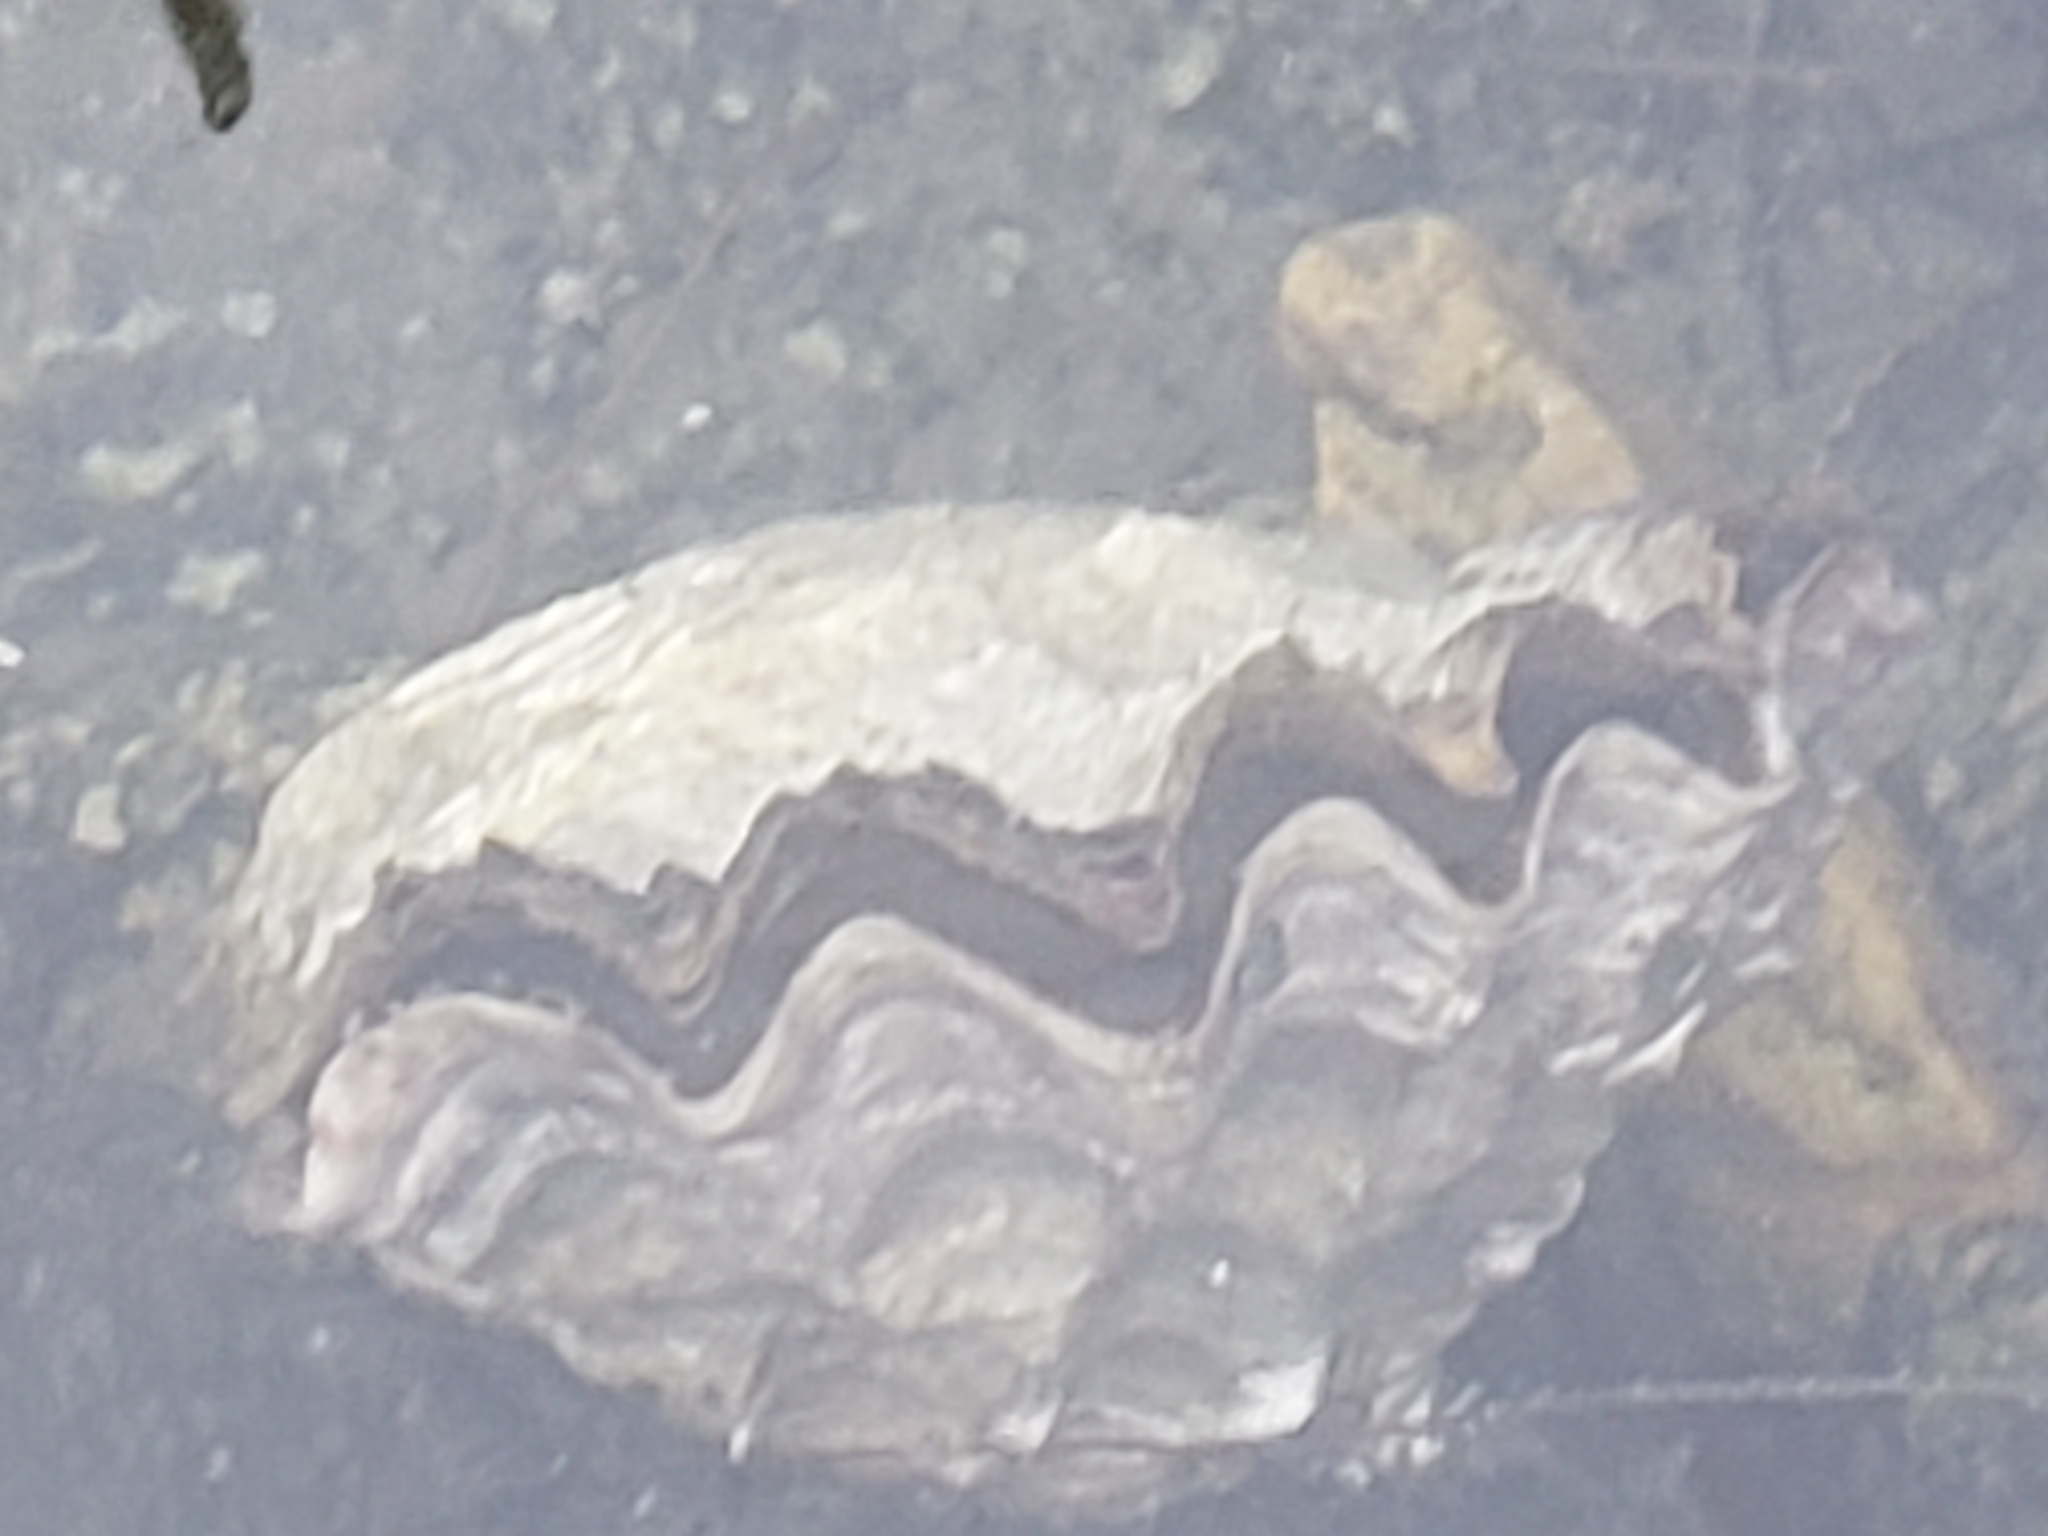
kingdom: Animalia
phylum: Mollusca
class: Bivalvia
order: Ostreida
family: Ostreidae
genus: Magallana
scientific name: Magallana gigas
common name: Pacific oyster
